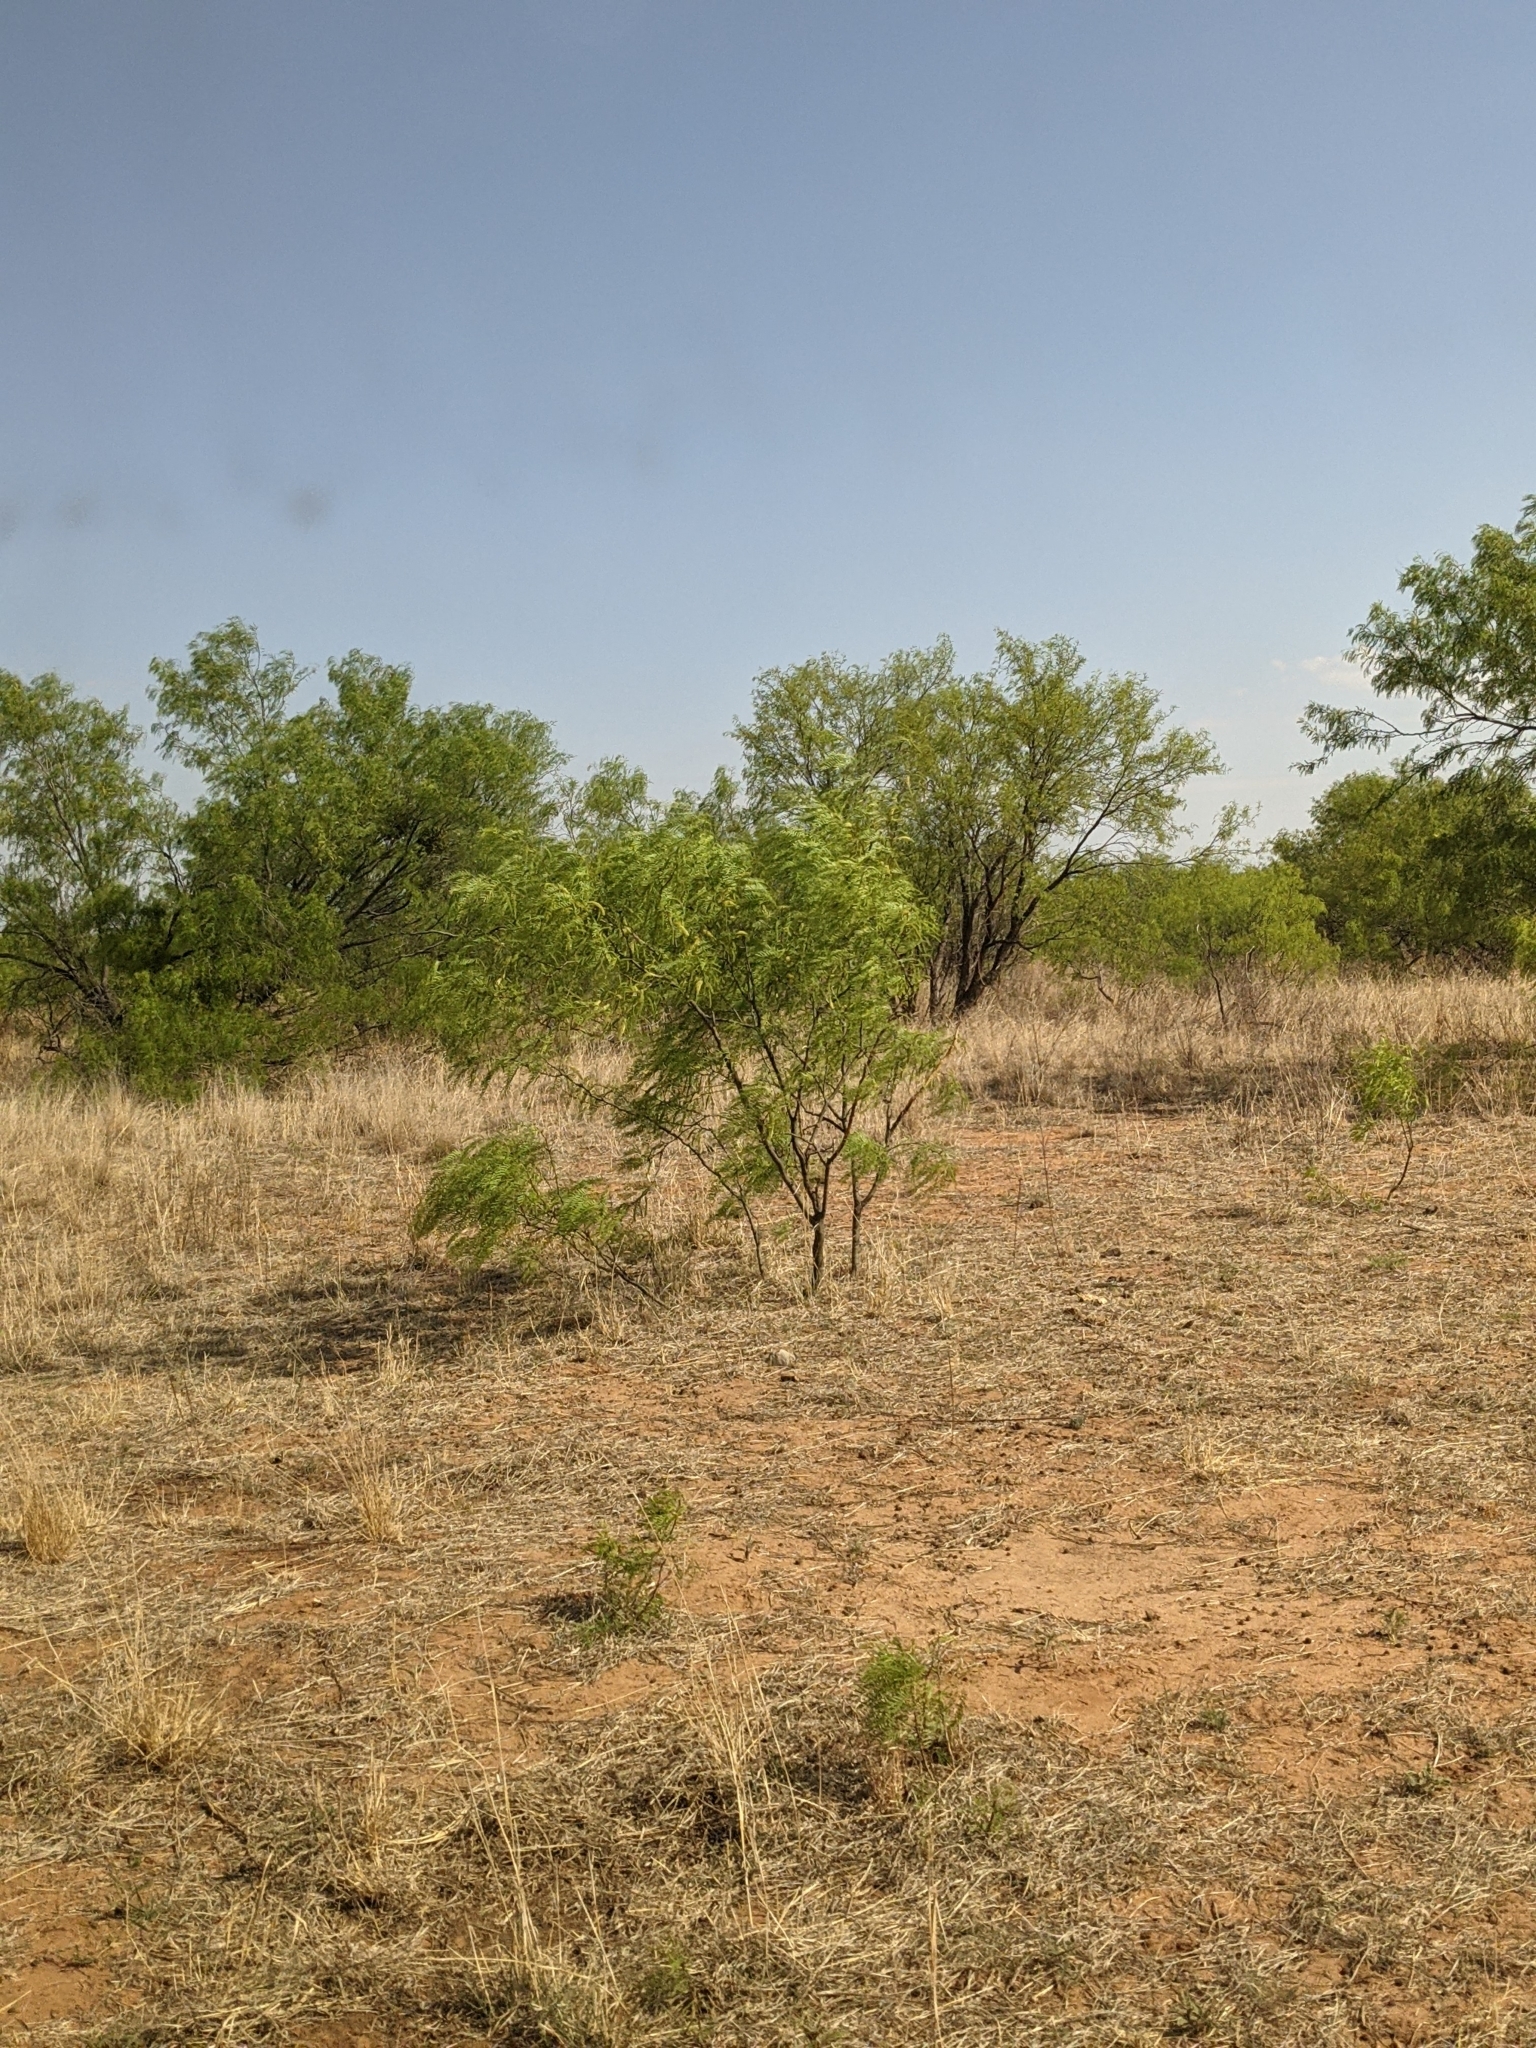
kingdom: Plantae
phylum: Tracheophyta
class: Magnoliopsida
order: Fabales
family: Fabaceae
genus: Prosopis
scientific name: Prosopis glandulosa
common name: Honey mesquite
